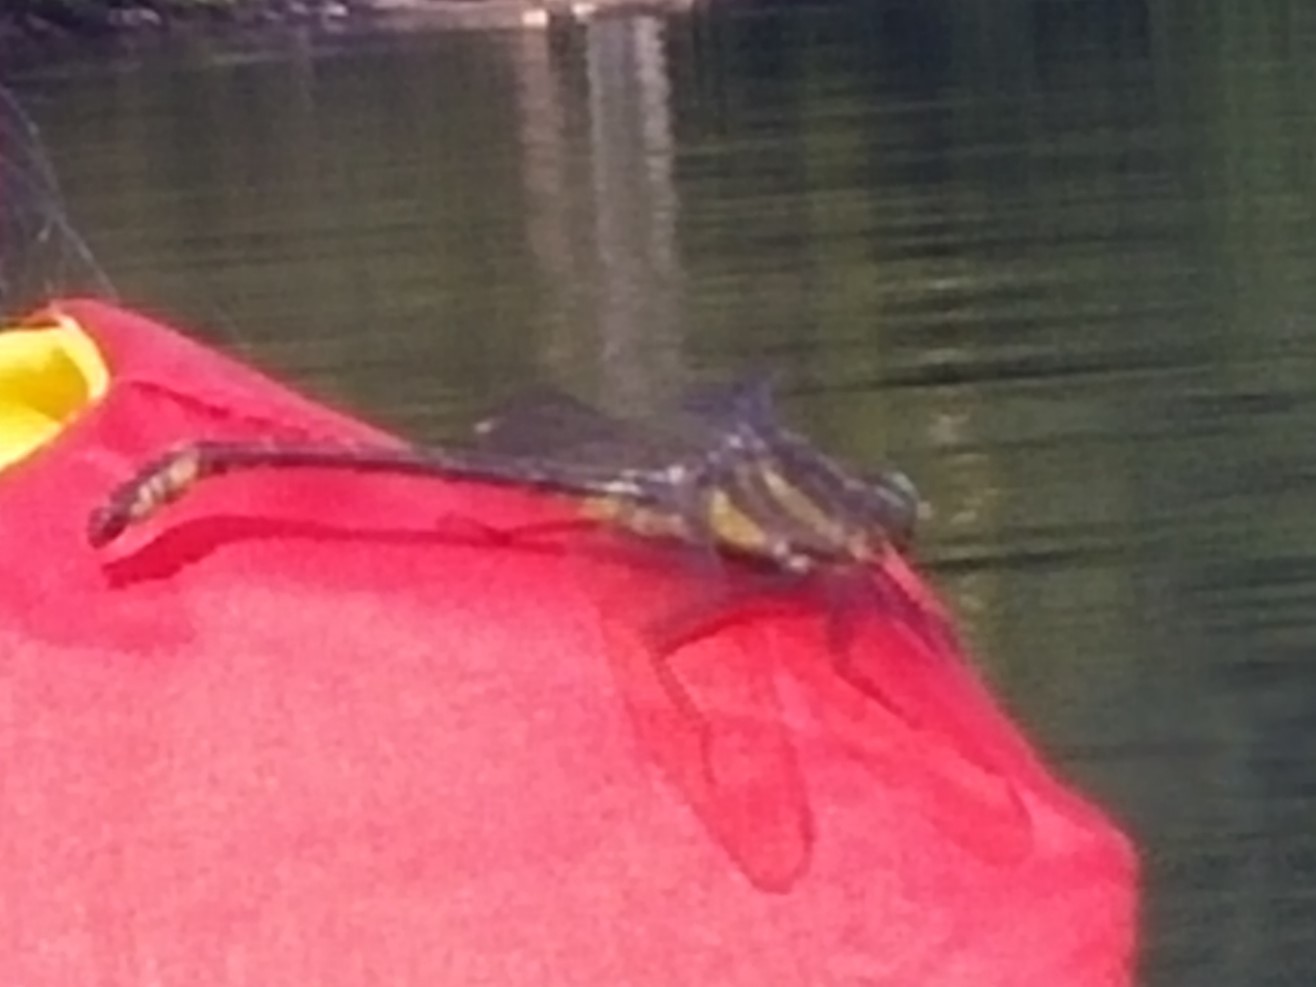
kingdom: Animalia
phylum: Arthropoda
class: Insecta
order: Odonata
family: Gomphidae
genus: Hagenius
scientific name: Hagenius brevistylus
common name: Dragonhunter
